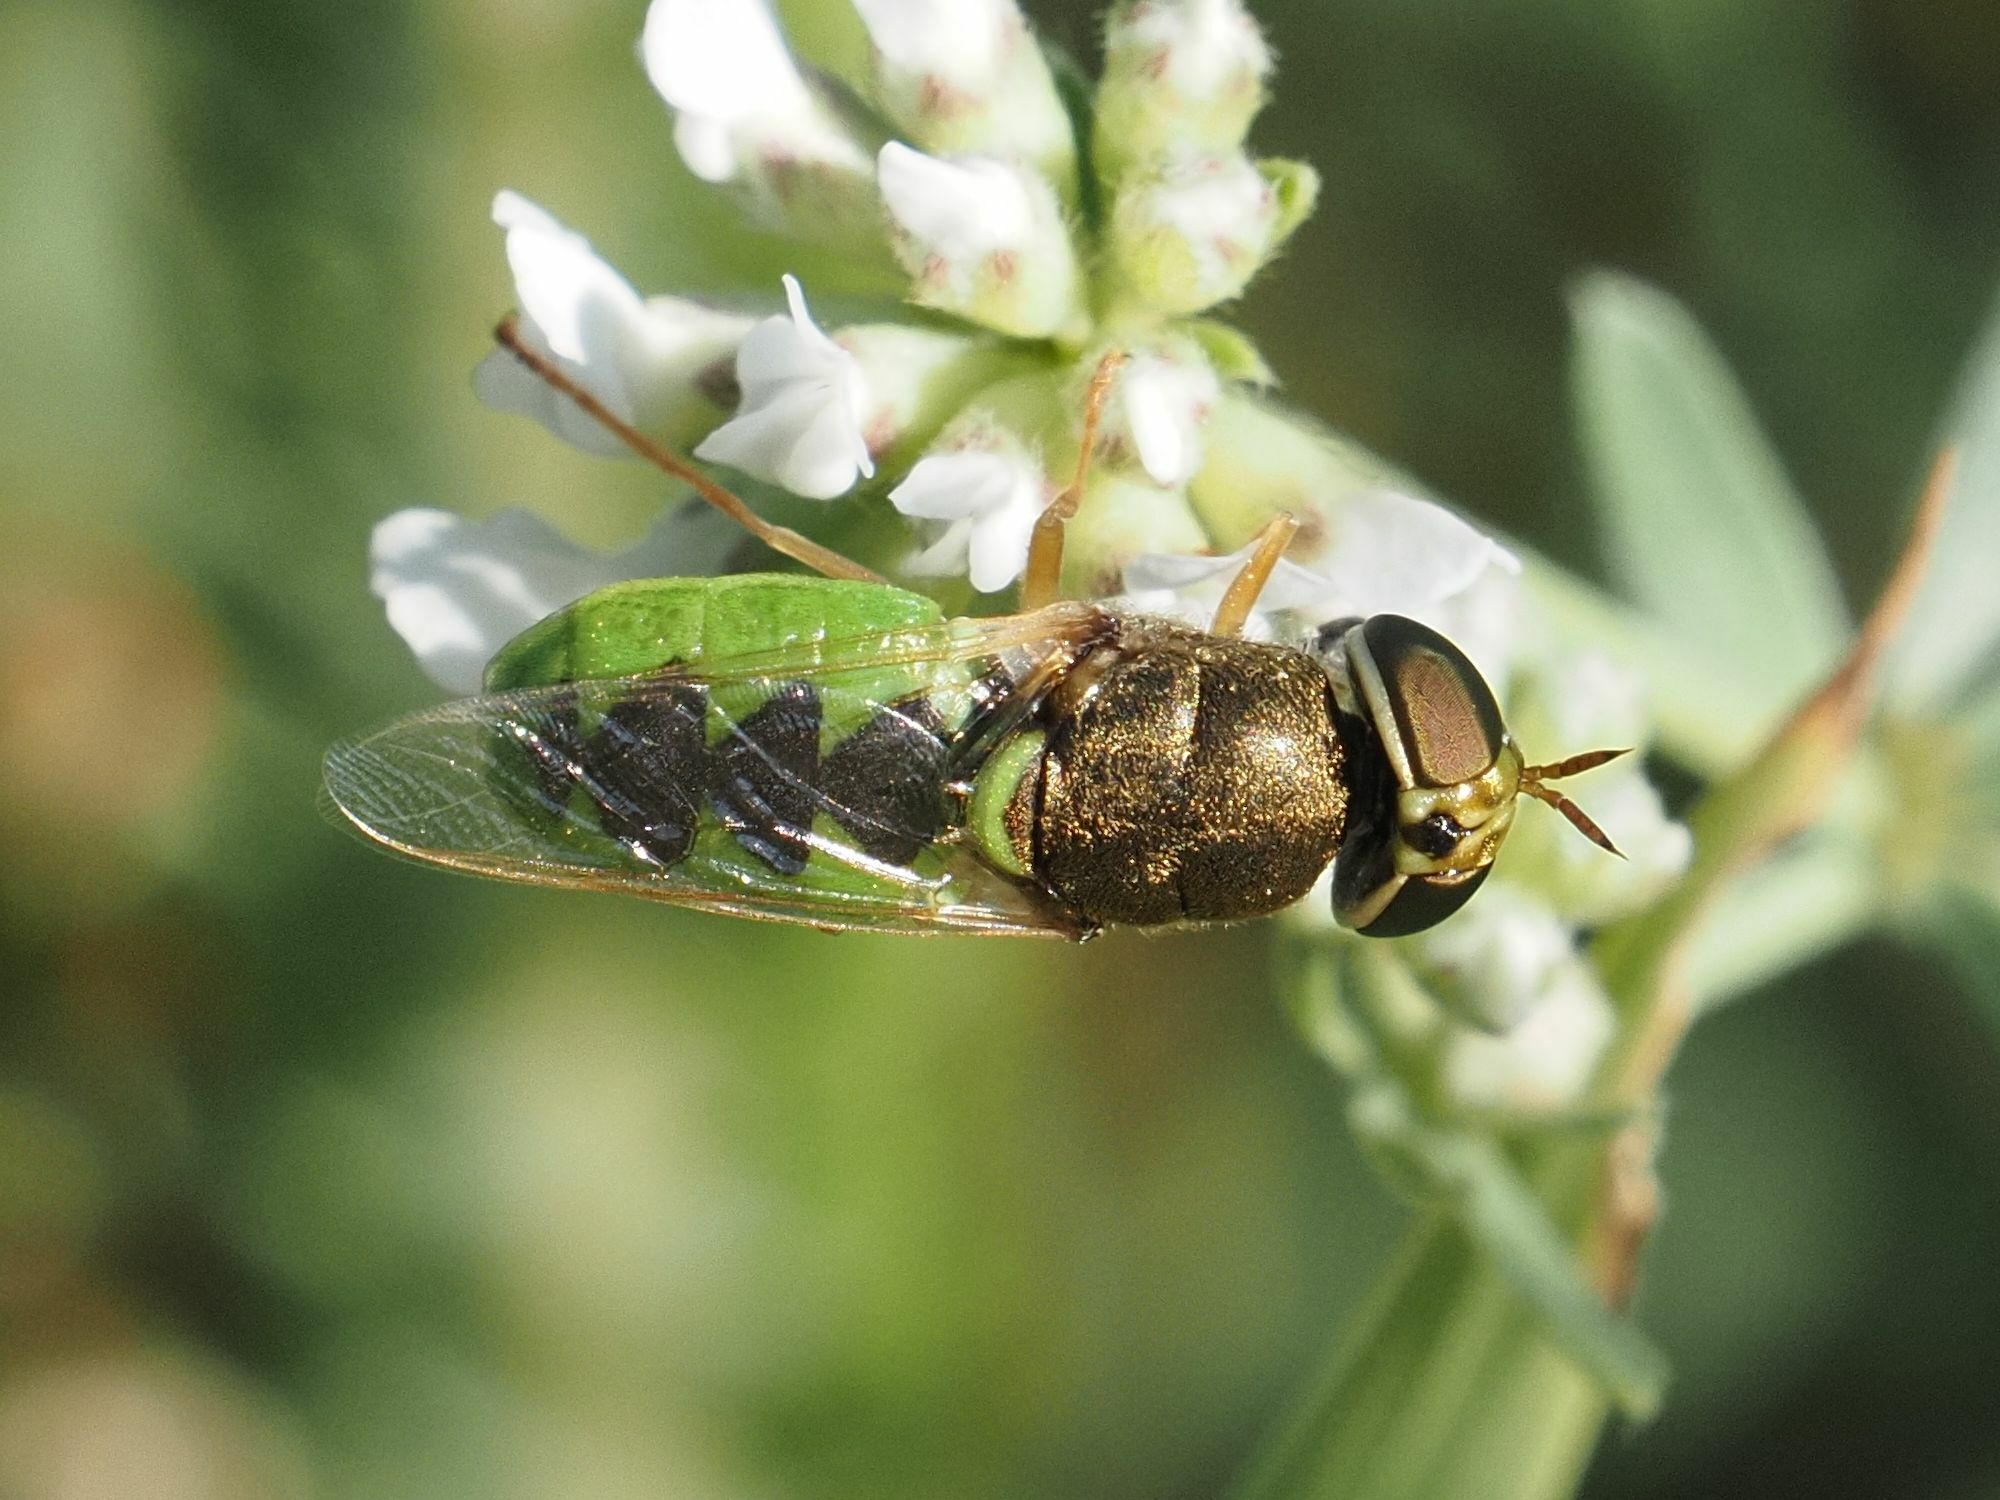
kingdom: Animalia
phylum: Arthropoda
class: Insecta
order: Diptera
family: Stratiomyidae
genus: Odontomyia
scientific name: Odontomyia angulata
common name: Orange-horned green colonel
